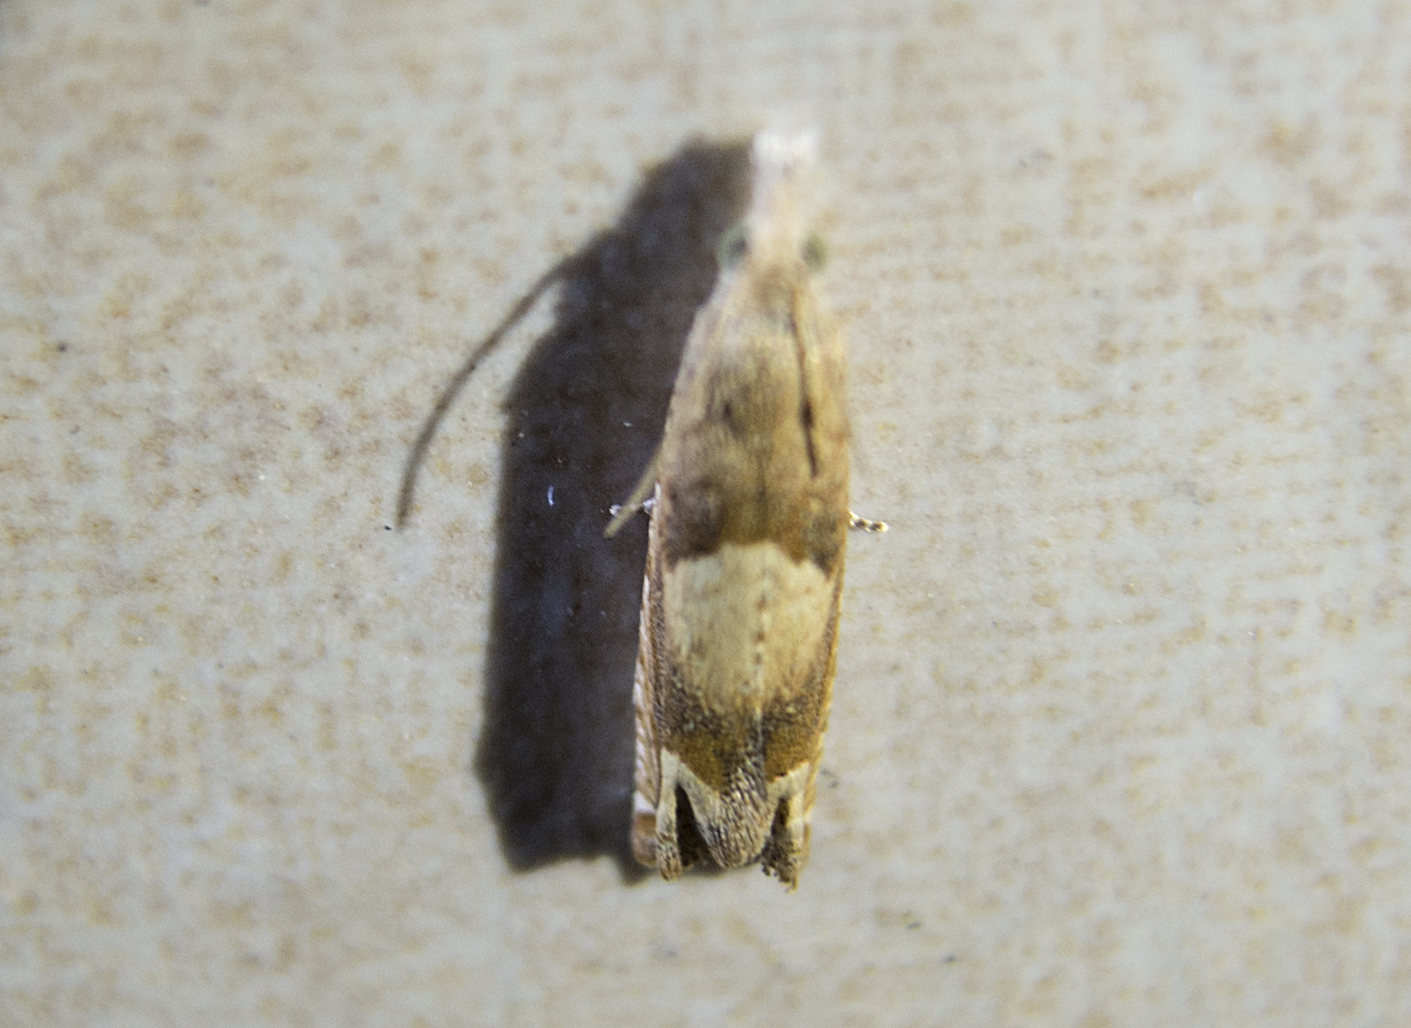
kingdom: Animalia
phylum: Arthropoda
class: Insecta
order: Lepidoptera
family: Tortricidae
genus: Eucosma
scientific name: Eucosma conterminana
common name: Pale lettuce bell
